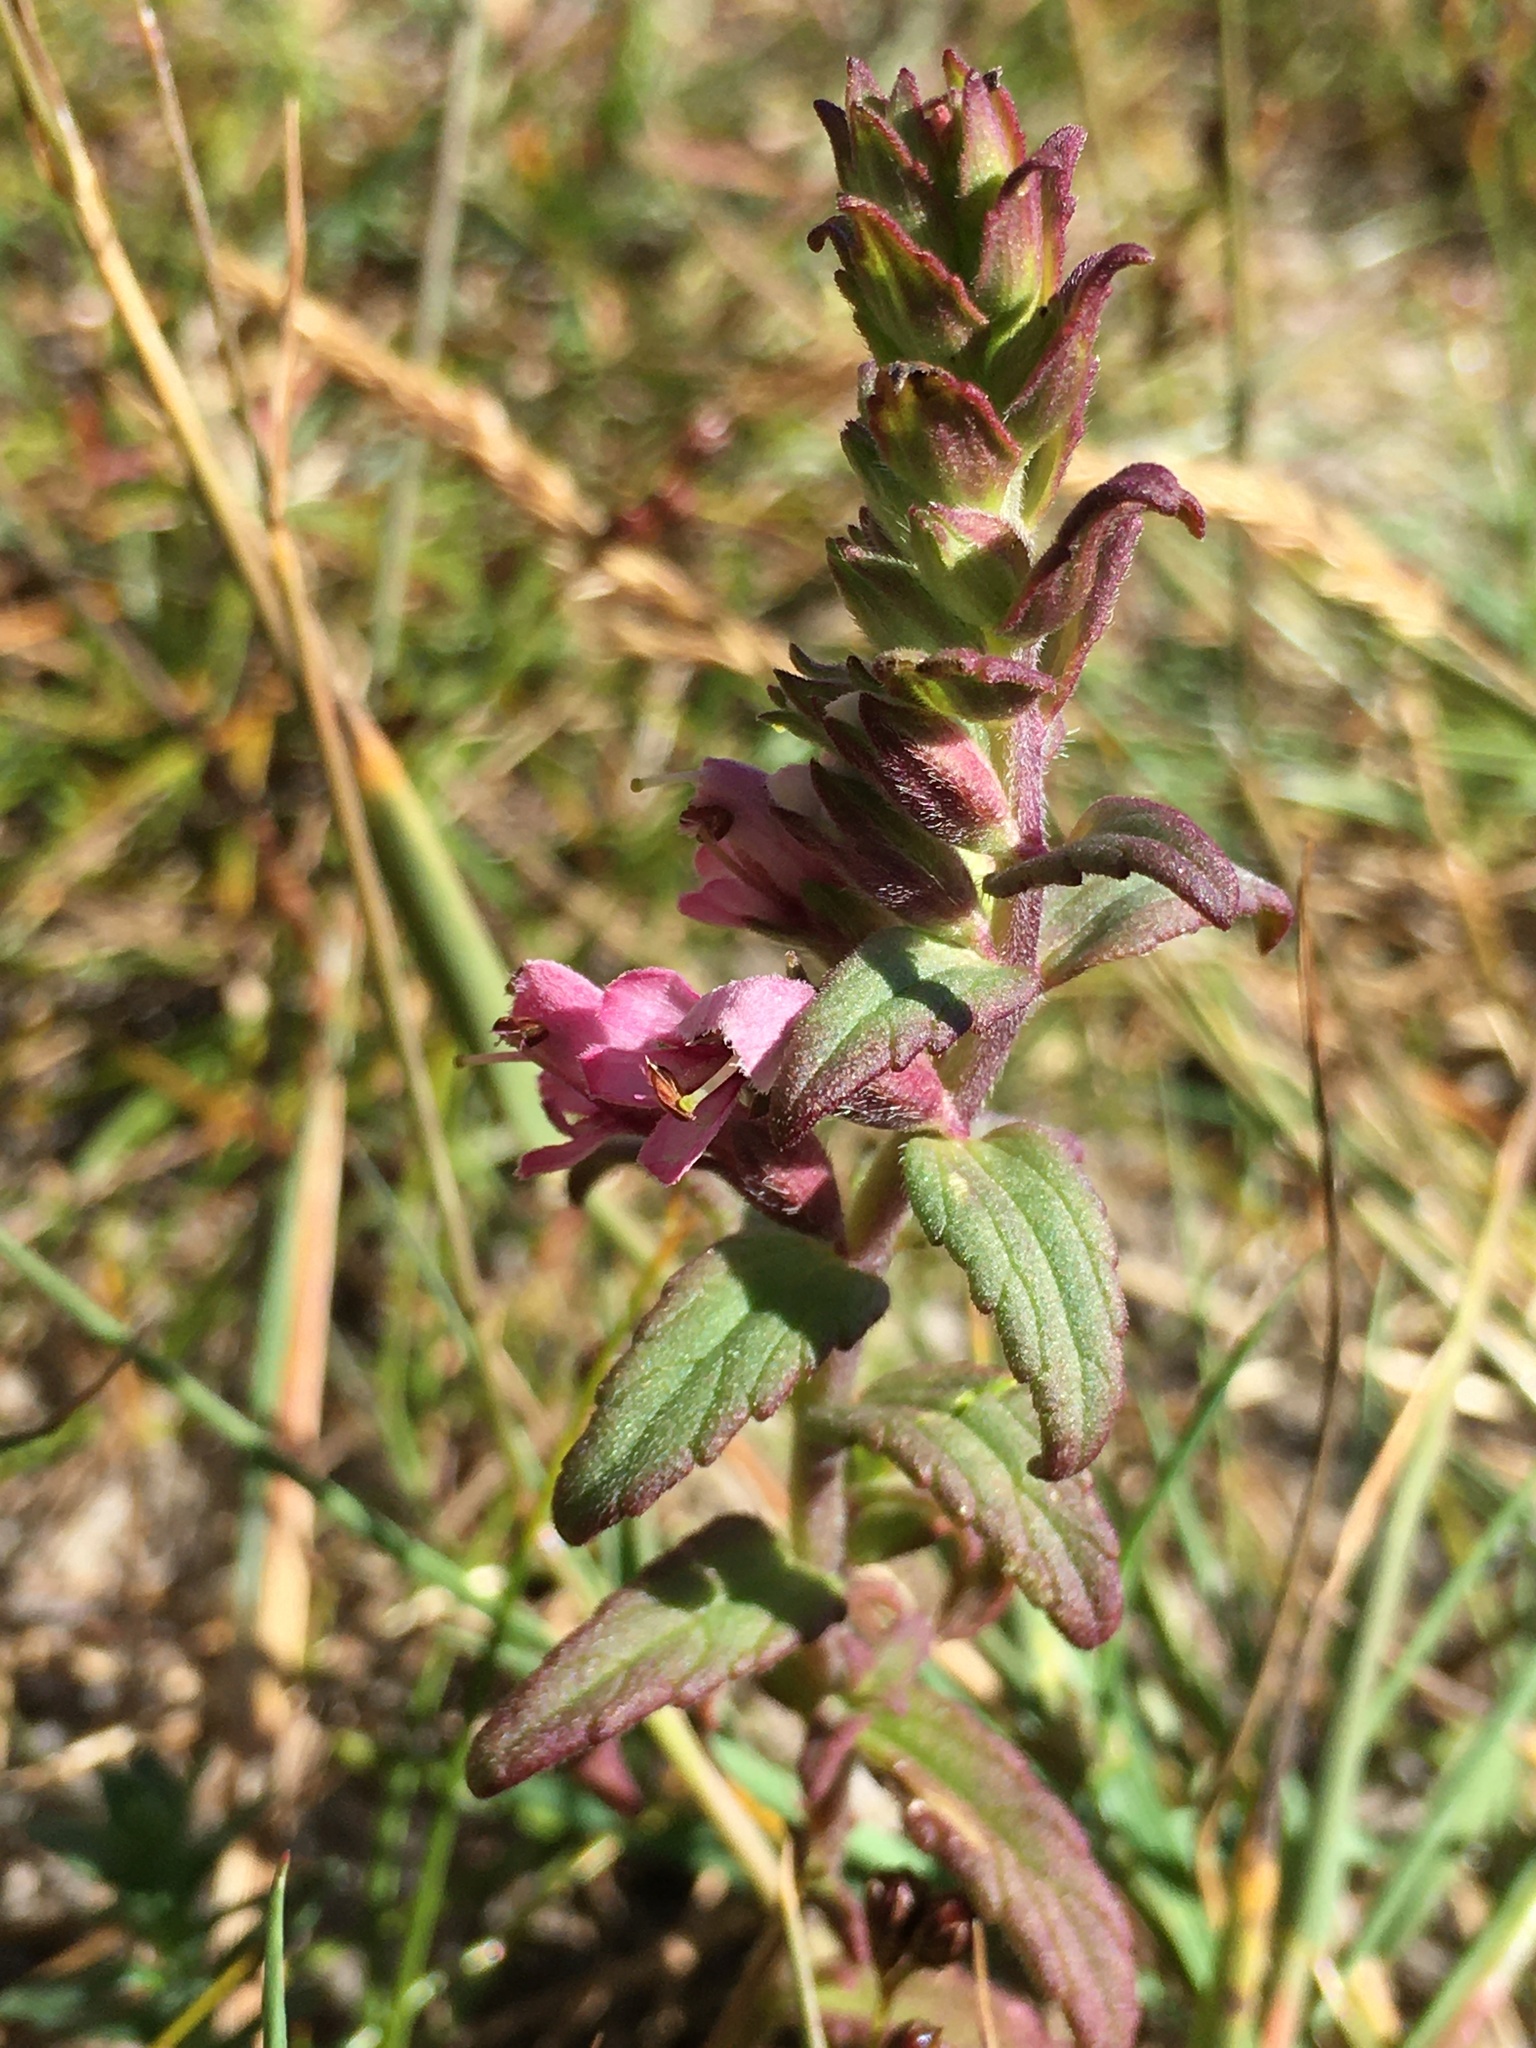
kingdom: Plantae
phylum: Tracheophyta
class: Magnoliopsida
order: Lamiales
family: Orobanchaceae
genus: Odontites
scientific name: Odontites vernus
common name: Red bartsia
